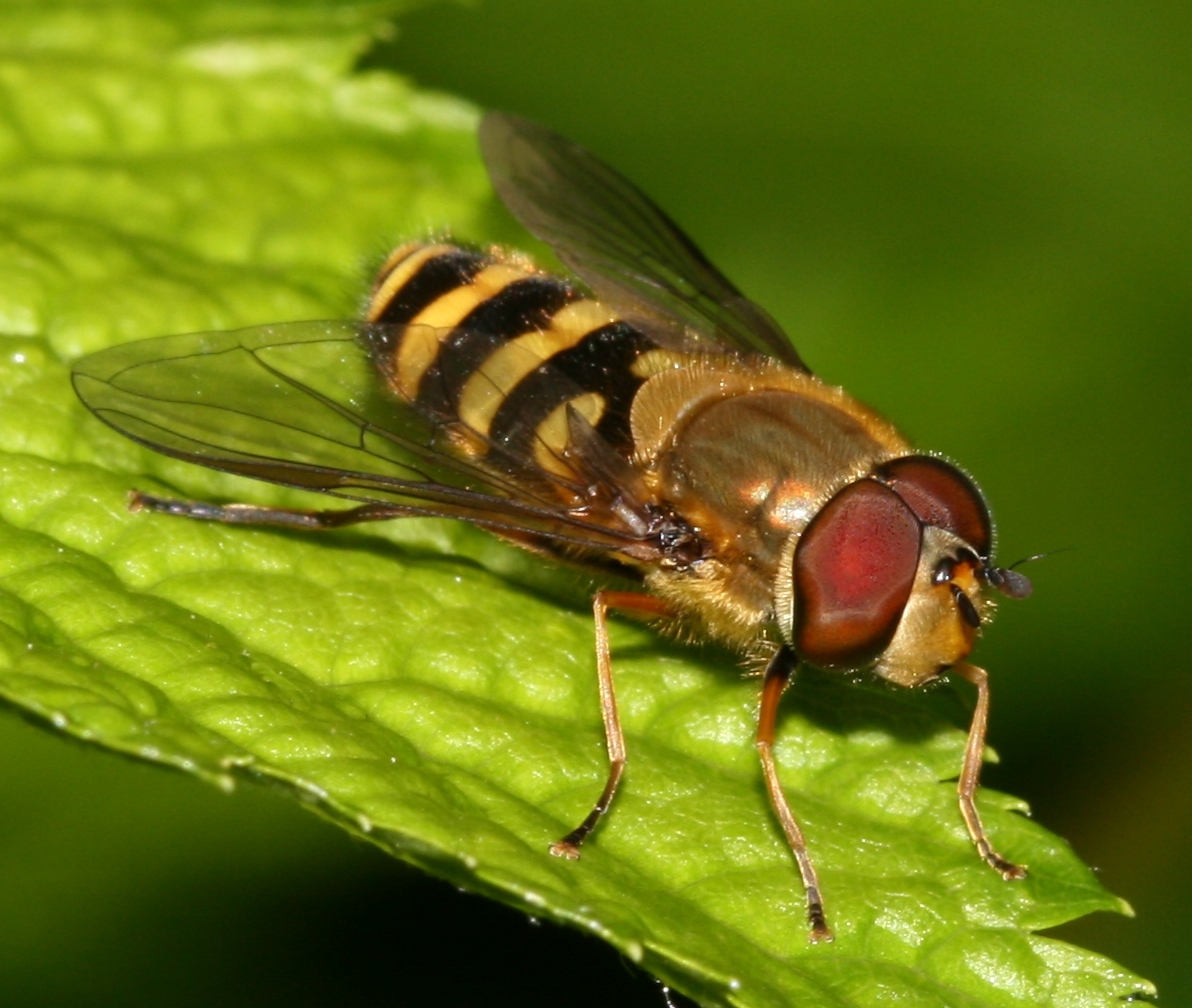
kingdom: Animalia
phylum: Arthropoda
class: Insecta
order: Diptera
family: Syrphidae
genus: Syrphus
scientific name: Syrphus torvus
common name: Hairy-eyed flower fly
